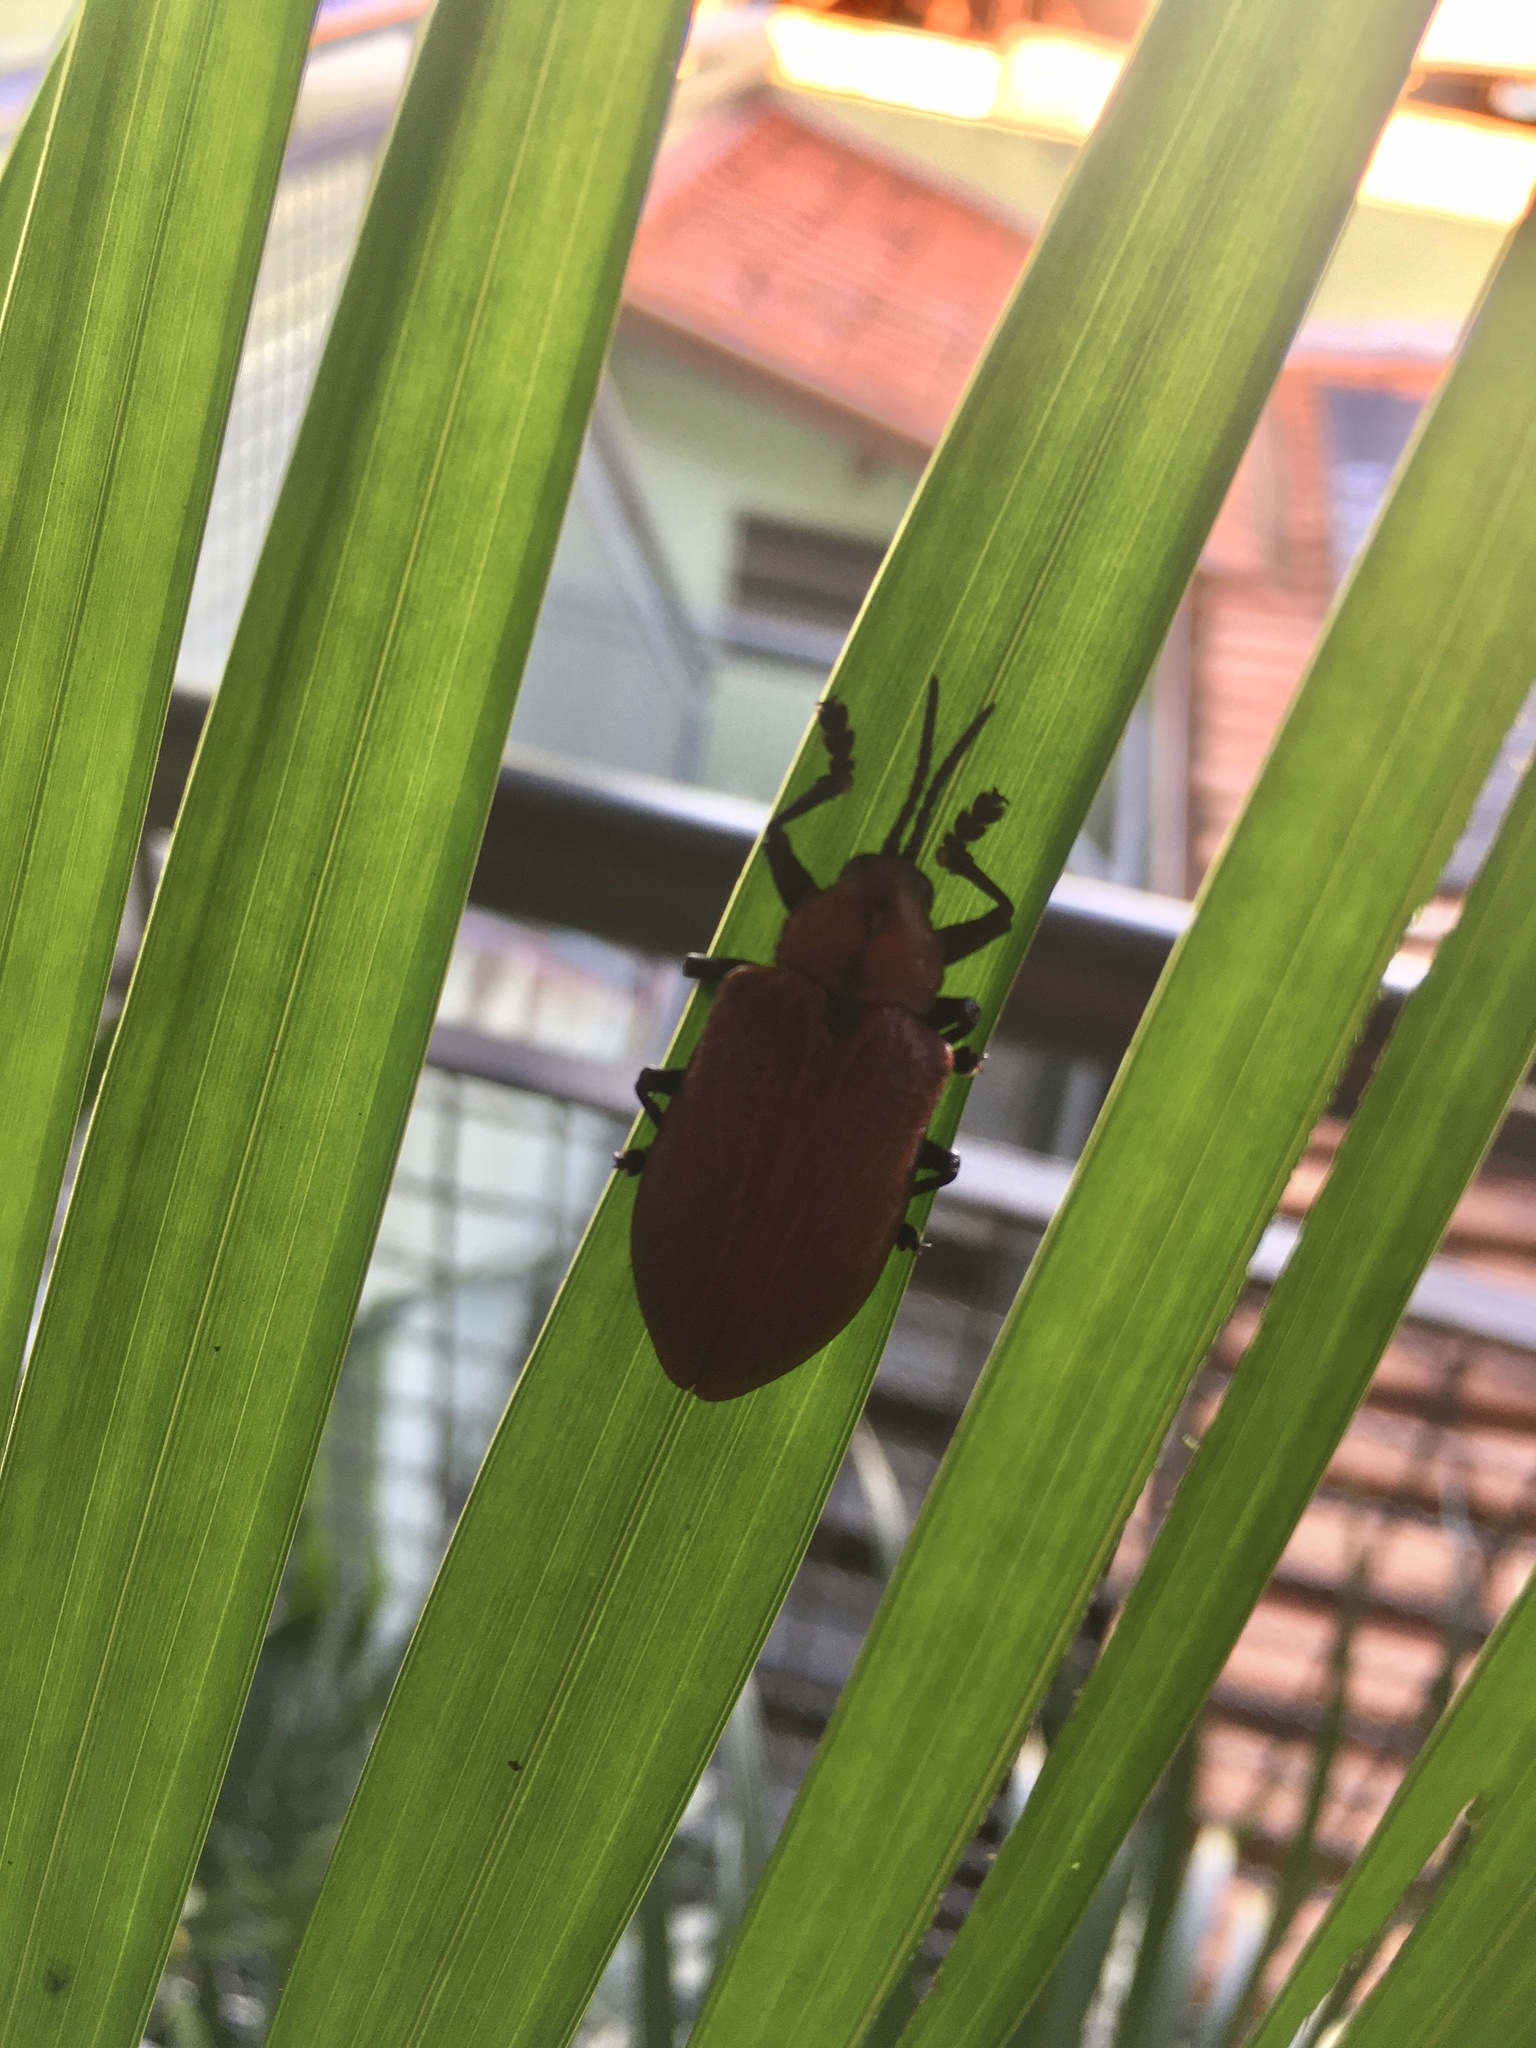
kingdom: Animalia
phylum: Arthropoda
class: Insecta
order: Coleoptera
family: Chrysomelidae
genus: Coraliomela
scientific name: Coraliomela brunnea
